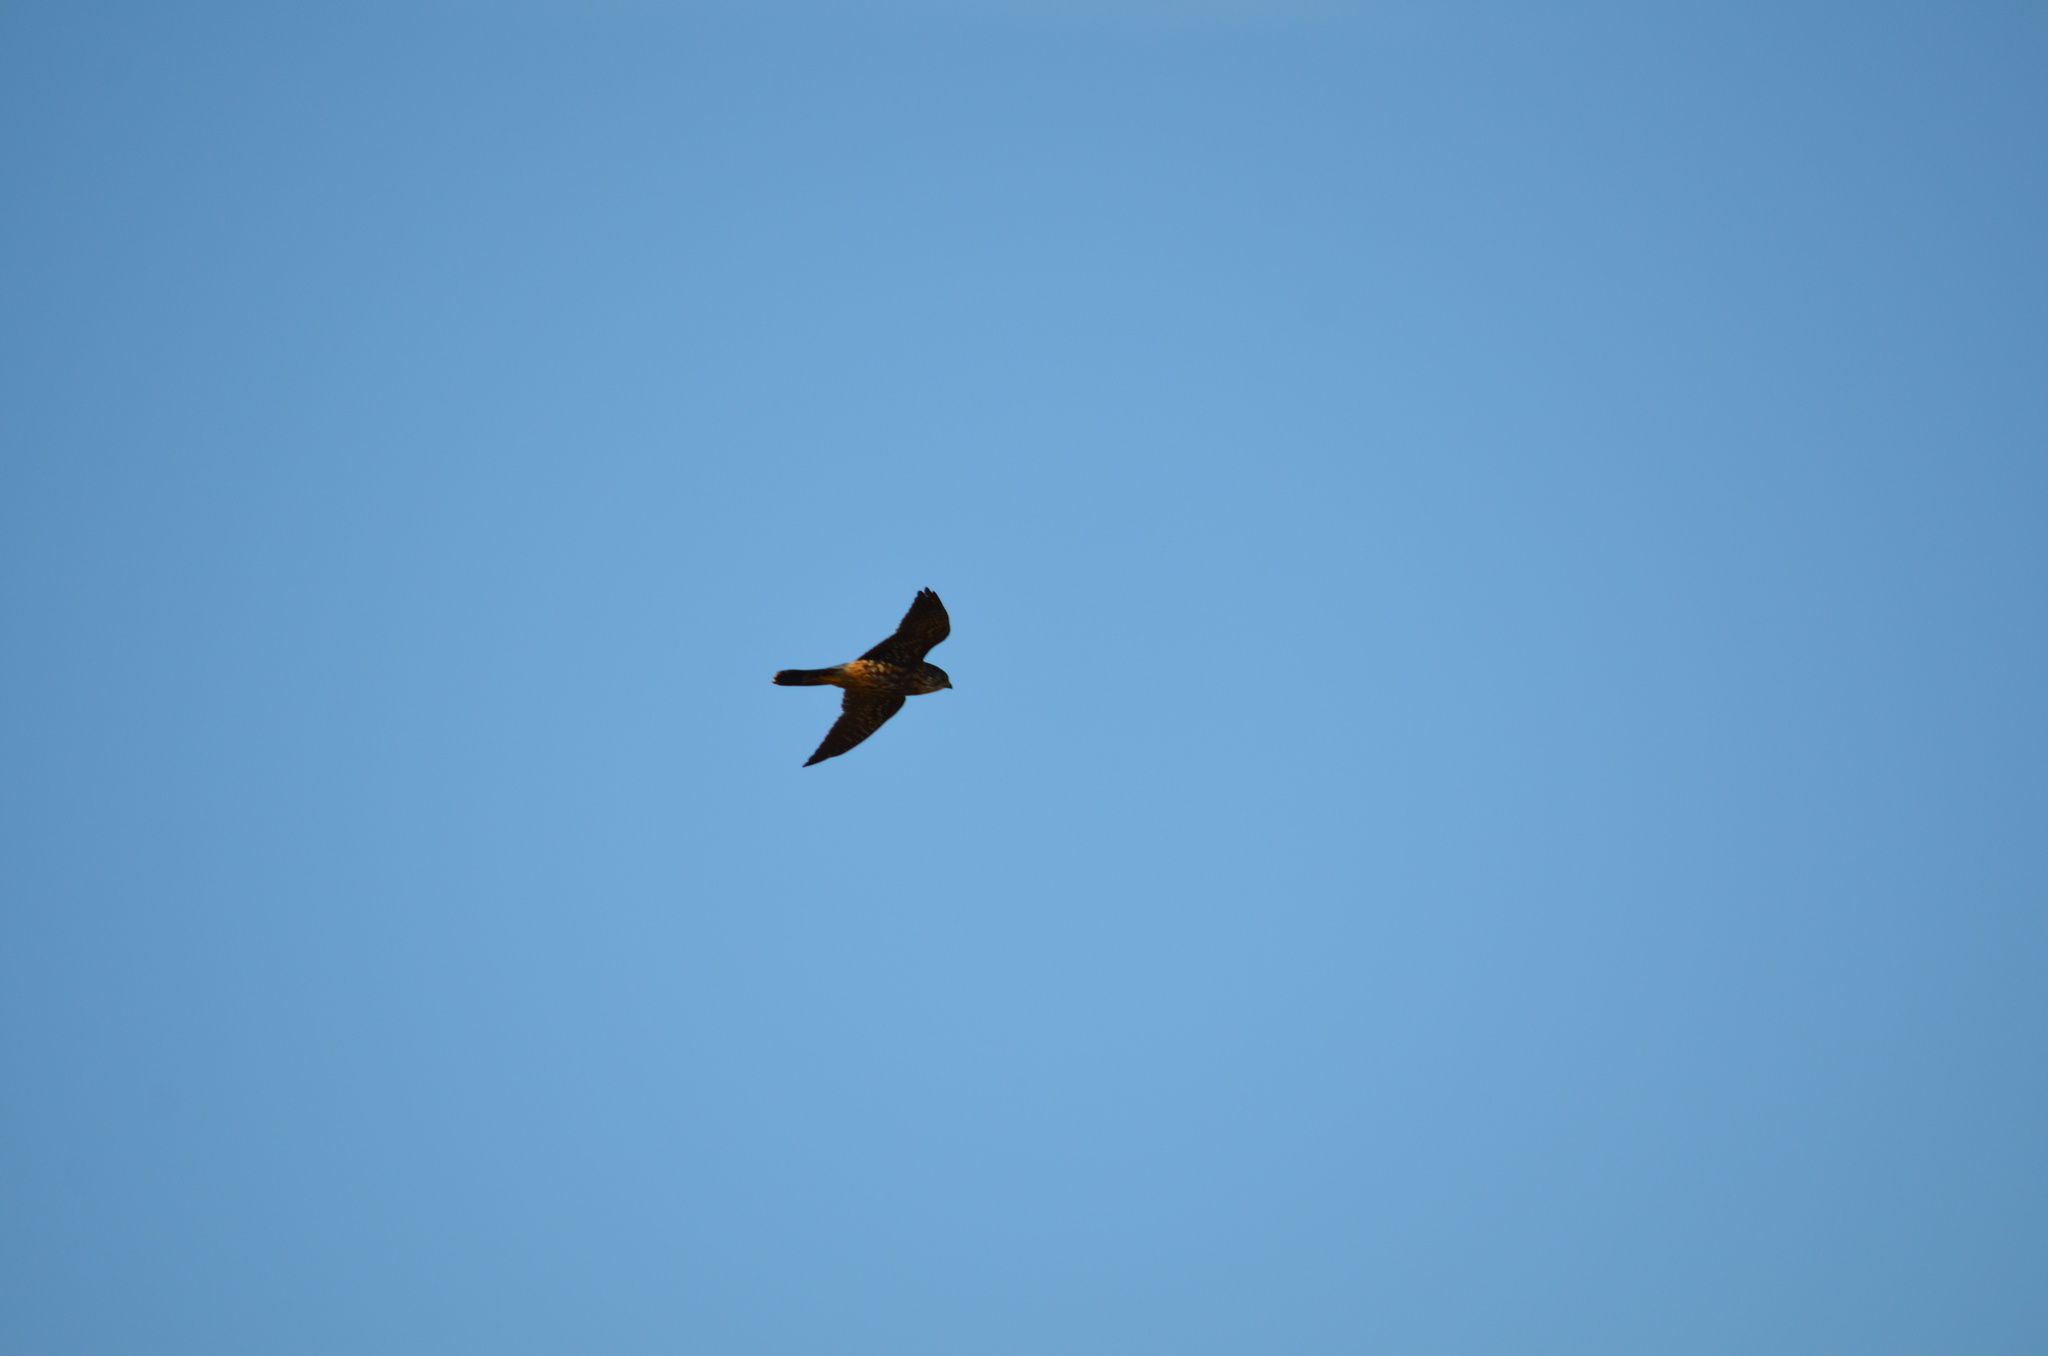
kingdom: Animalia
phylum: Chordata
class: Aves
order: Falconiformes
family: Falconidae
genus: Falco
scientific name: Falco columbarius
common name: Merlin
